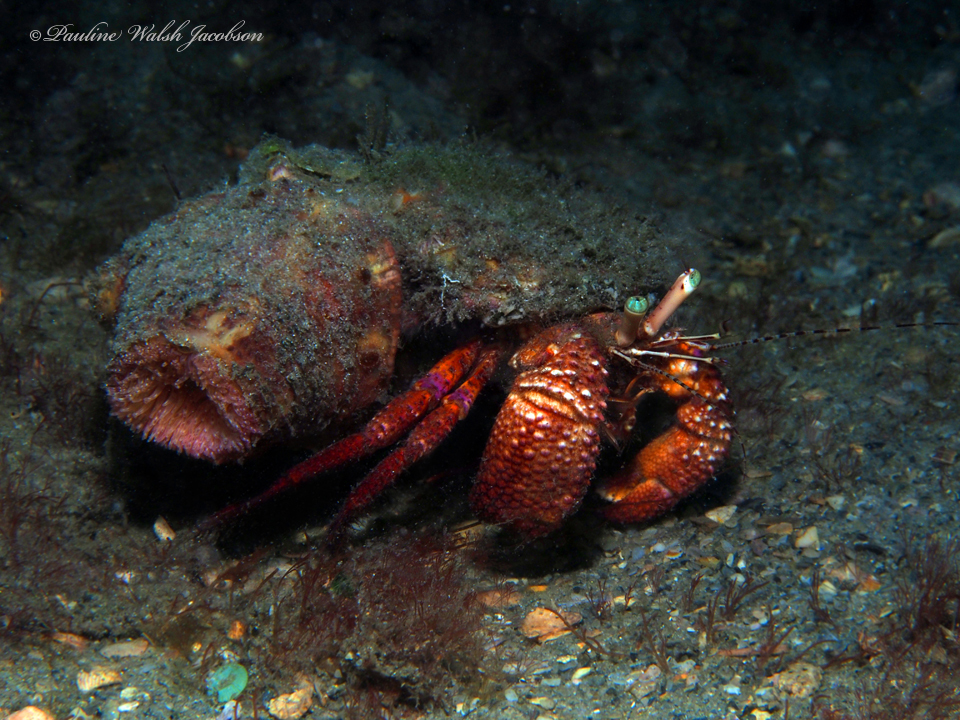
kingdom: Animalia
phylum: Arthropoda
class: Malacostraca
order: Decapoda
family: Diogenidae
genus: Petrochirus
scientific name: Petrochirus diogenes
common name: Giant hermit crab
